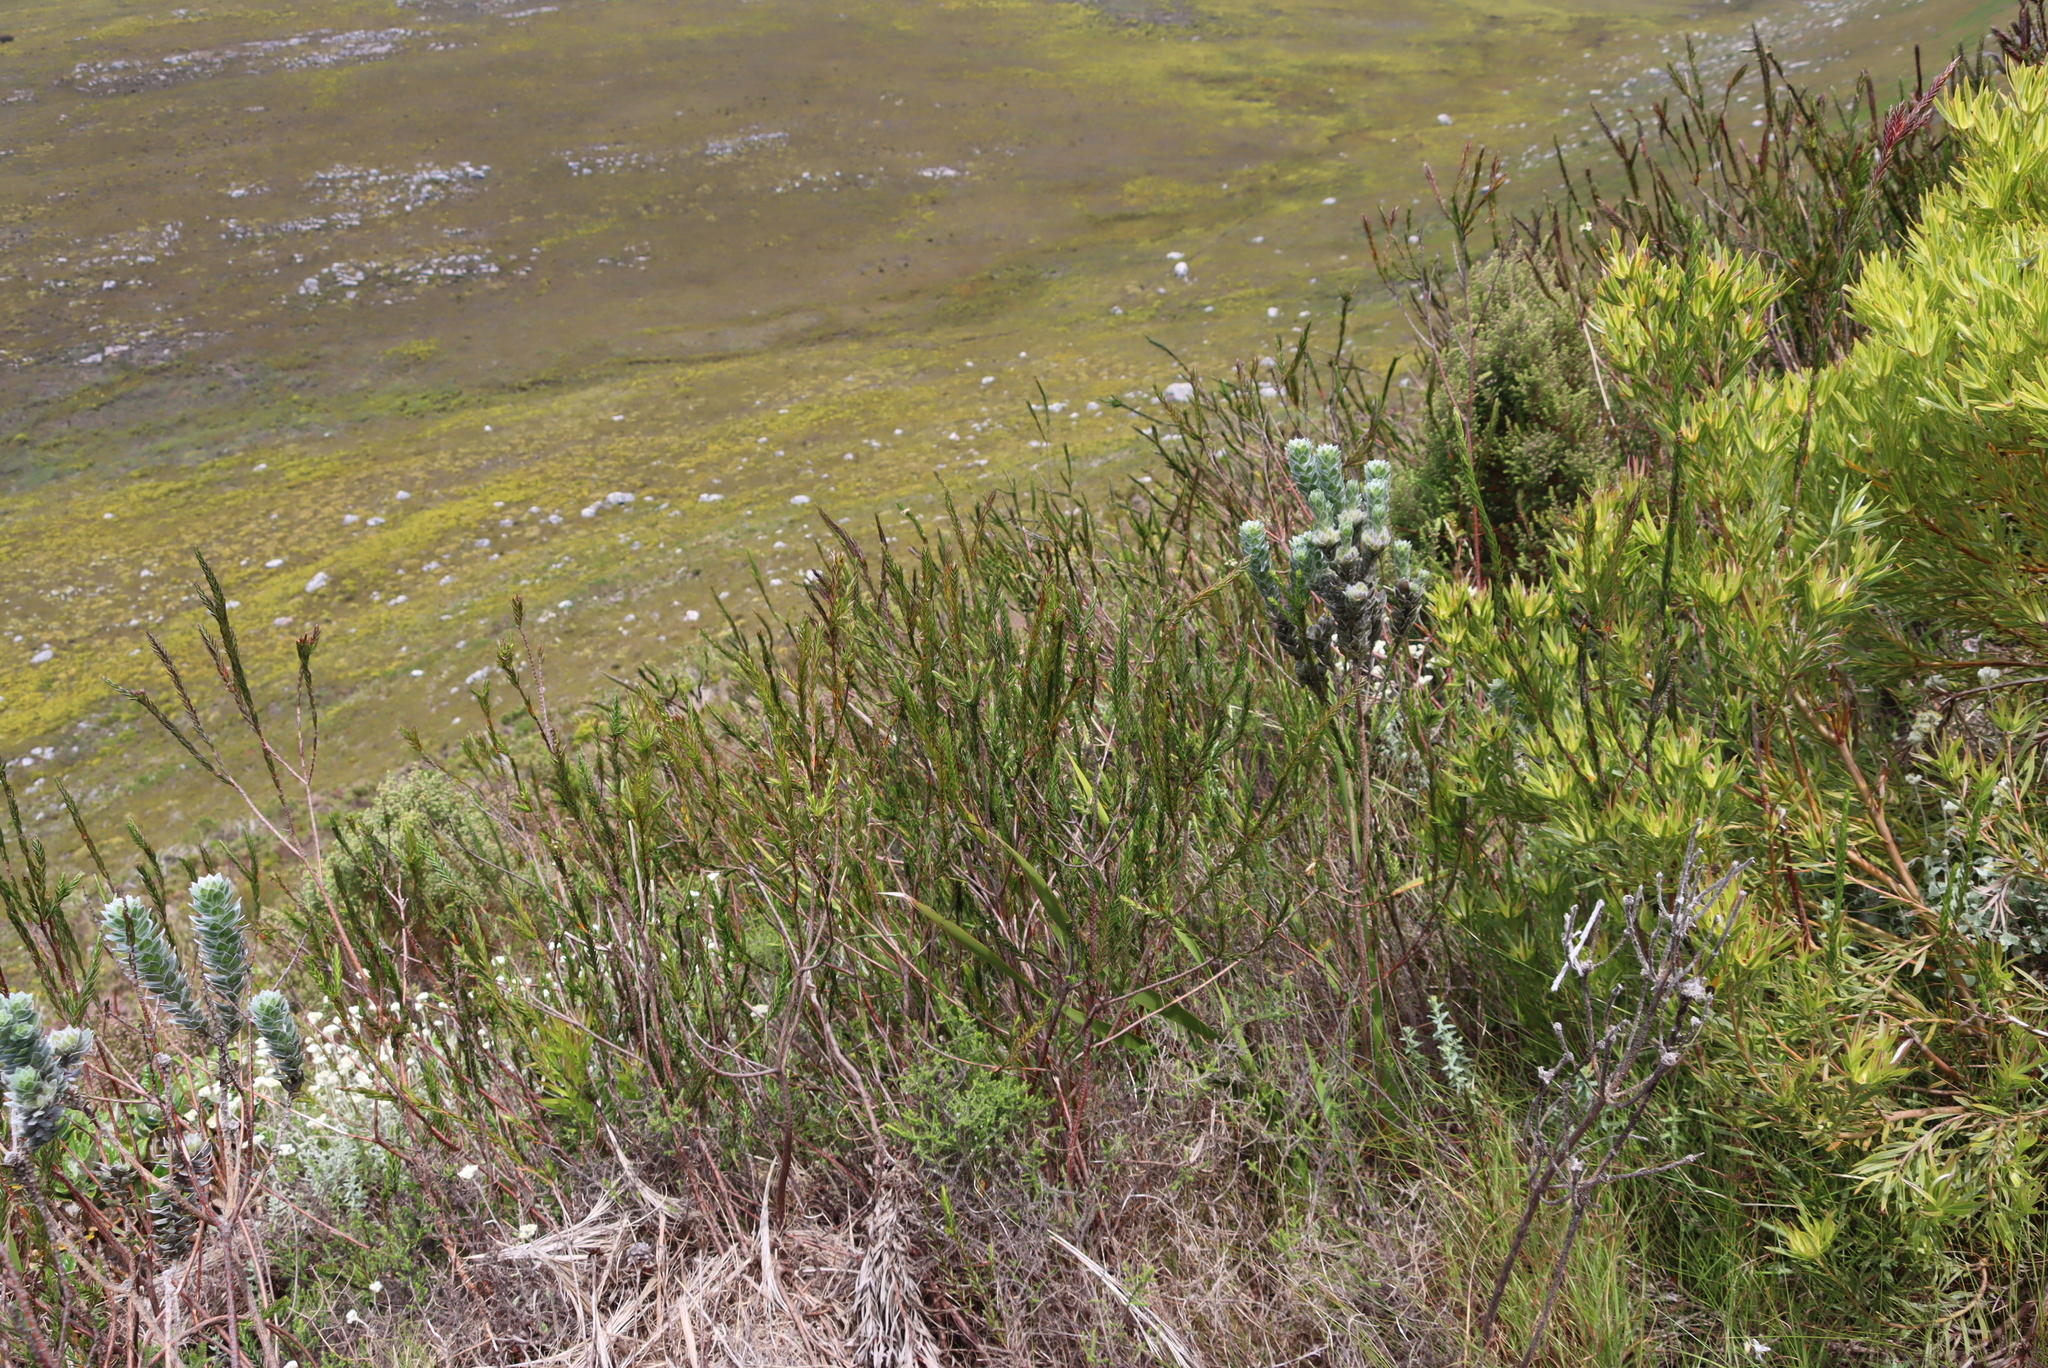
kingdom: Plantae
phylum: Tracheophyta
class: Magnoliopsida
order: Malvales
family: Thymelaeaceae
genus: Struthiola
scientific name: Struthiola ciliata
